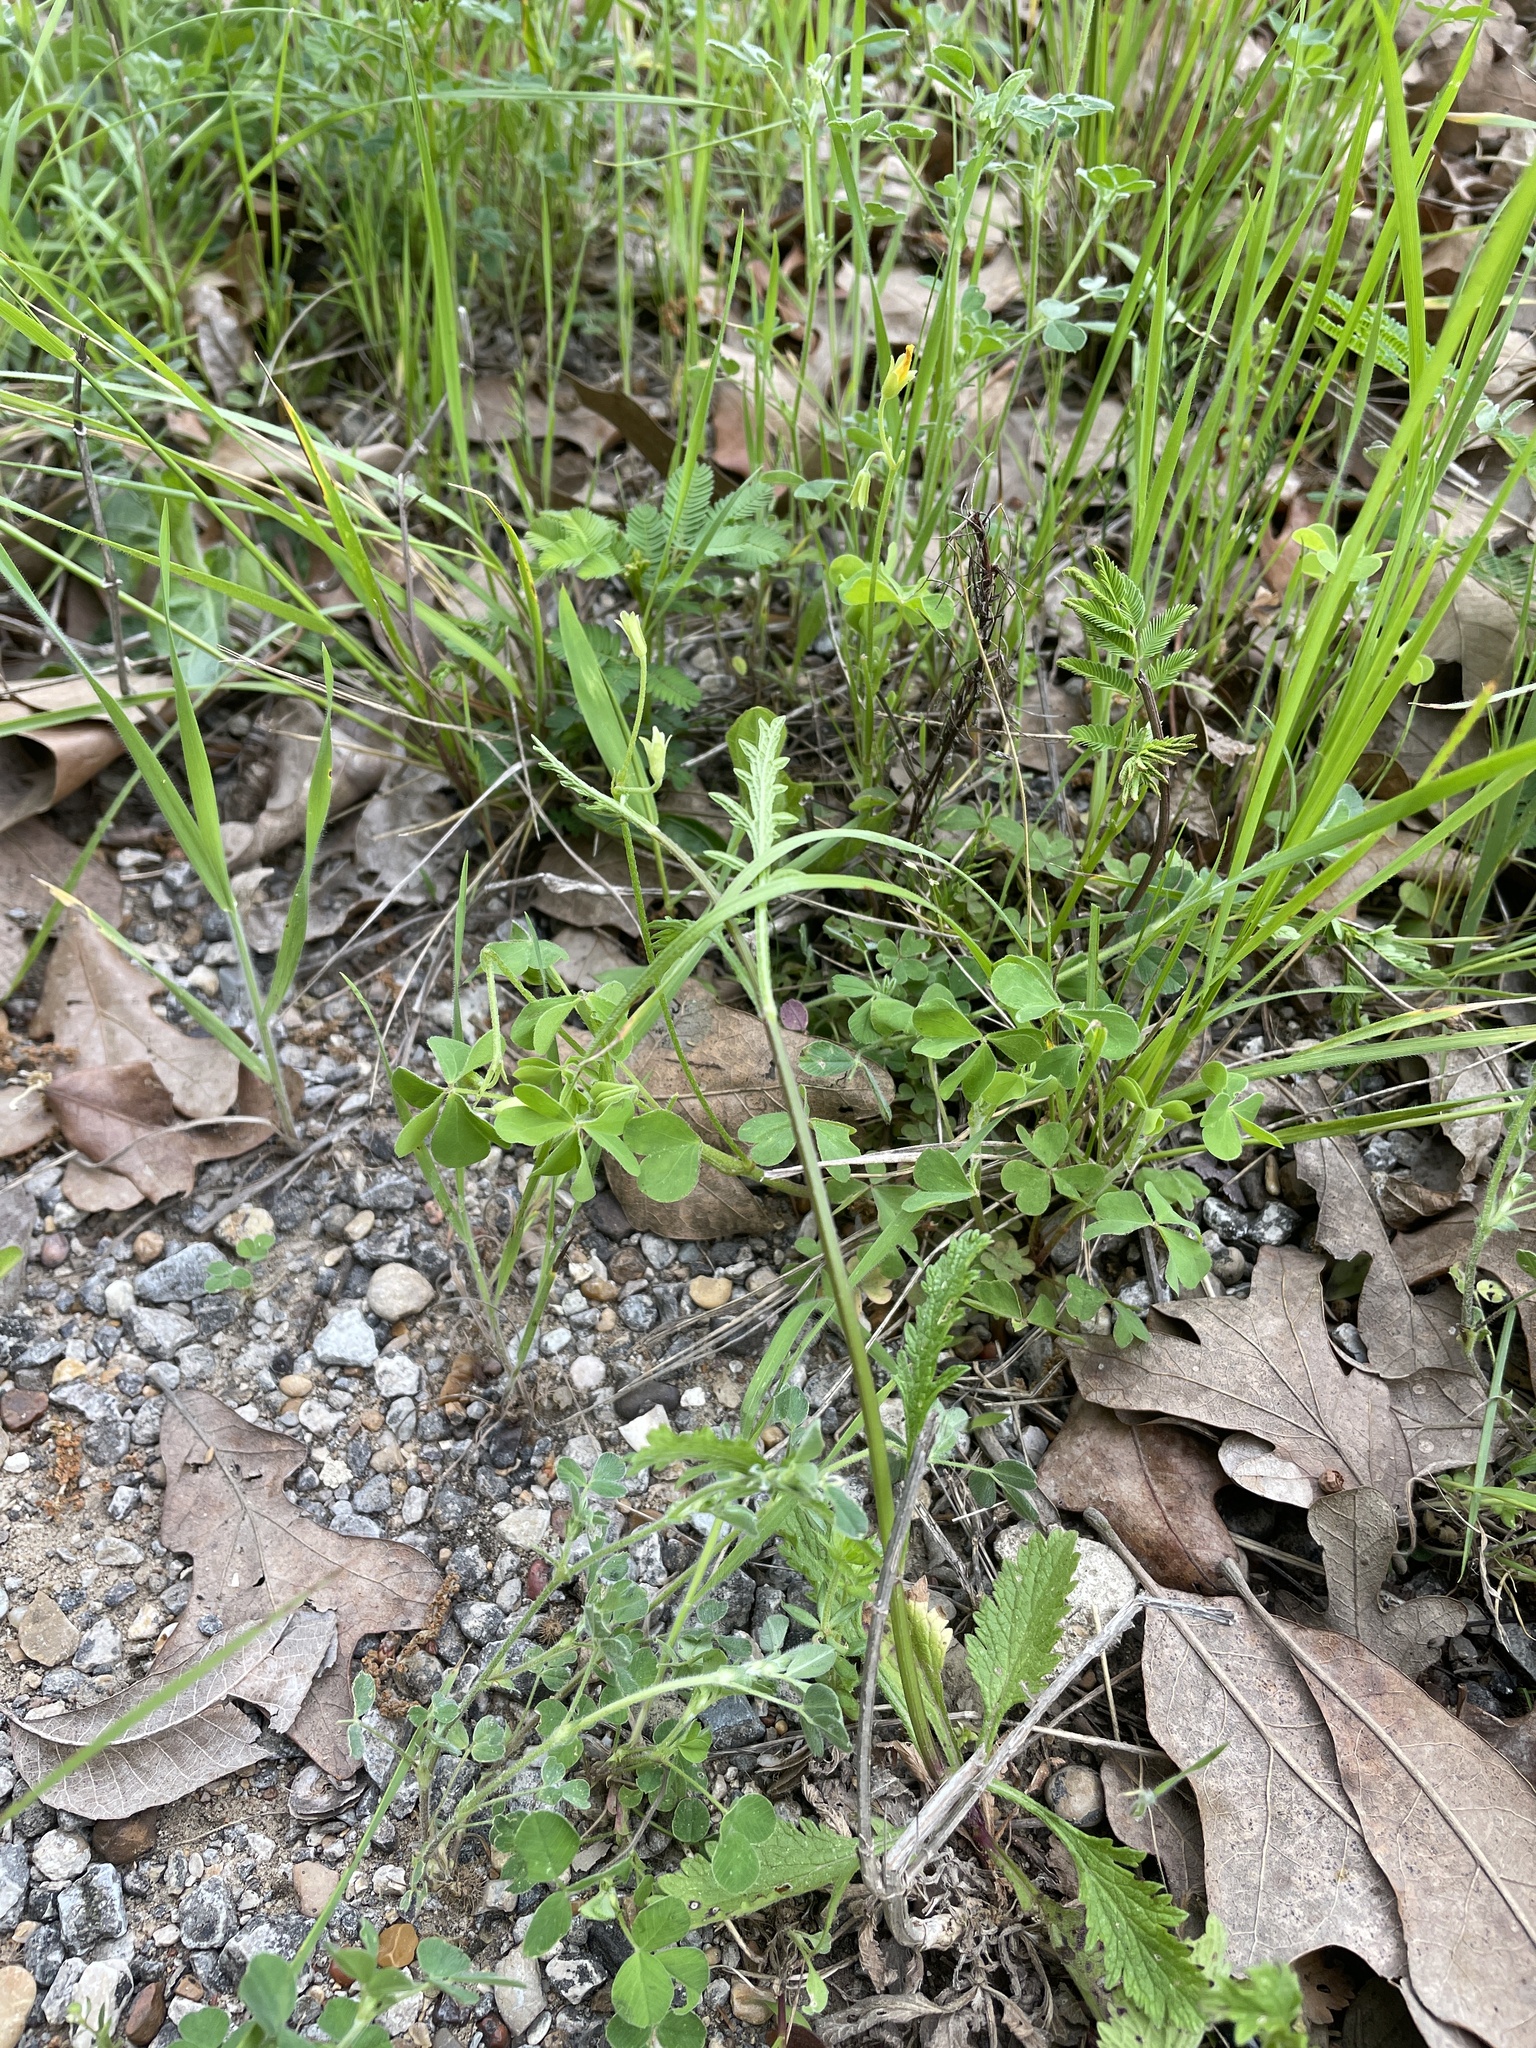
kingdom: Plantae
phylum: Tracheophyta
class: Magnoliopsida
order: Oxalidales
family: Oxalidaceae
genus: Oxalis
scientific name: Oxalis dillenii
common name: Sussex yellow-sorrel
